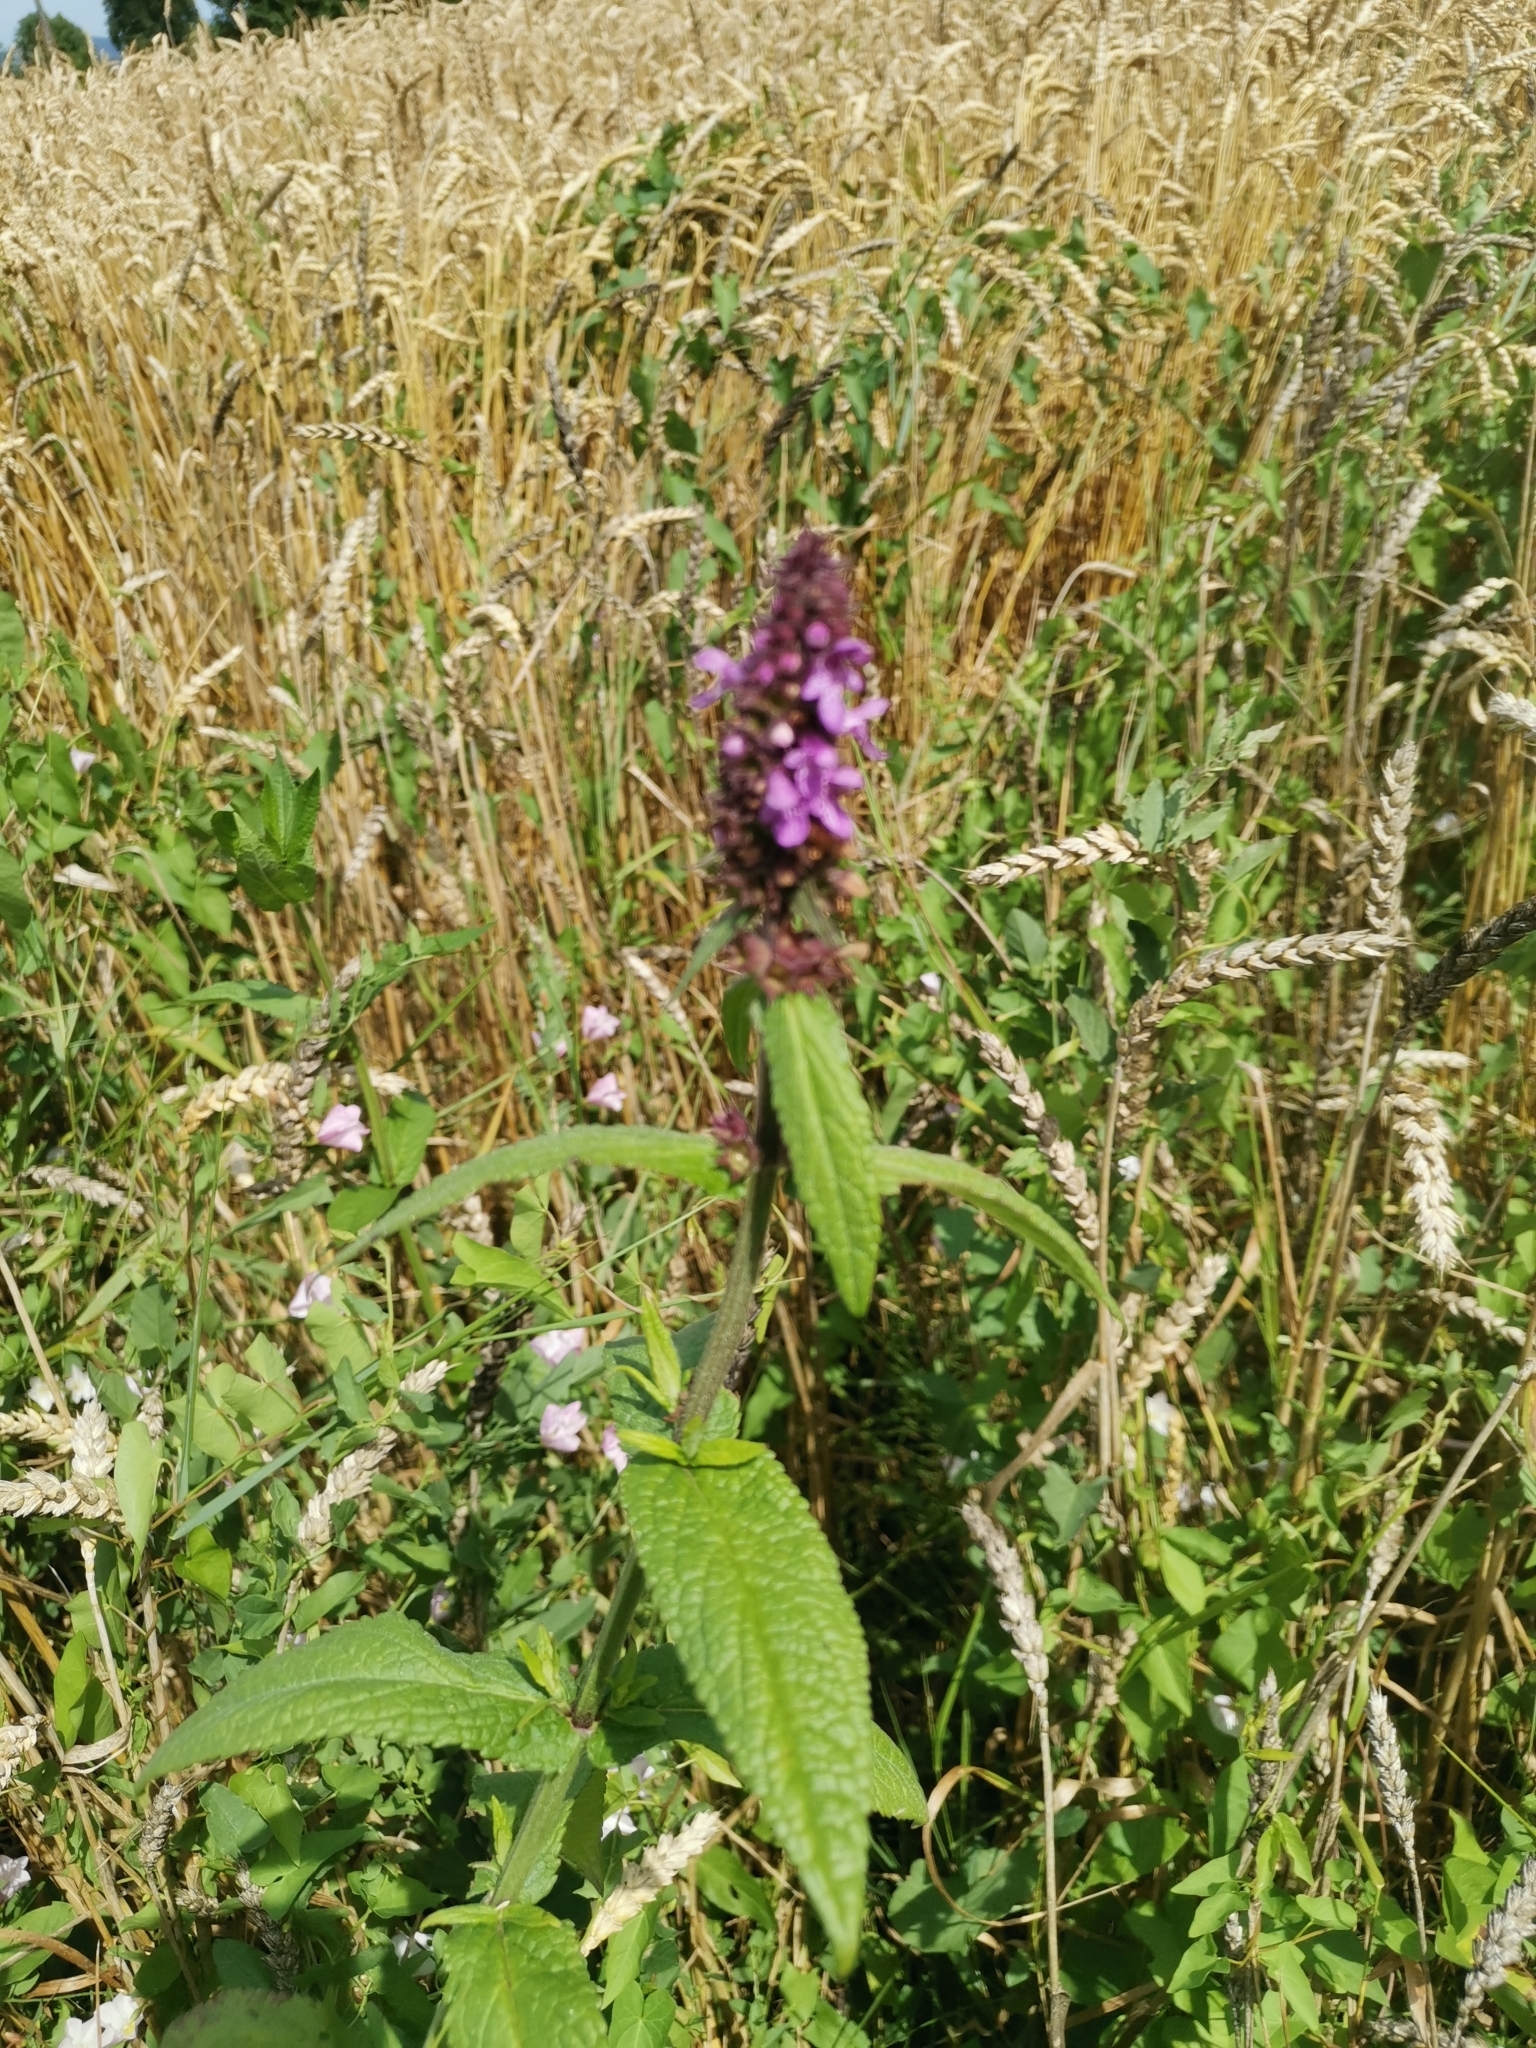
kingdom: Plantae
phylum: Tracheophyta
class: Magnoliopsida
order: Lamiales
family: Lamiaceae
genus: Stachys
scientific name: Stachys palustris
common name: Marsh woundwort
